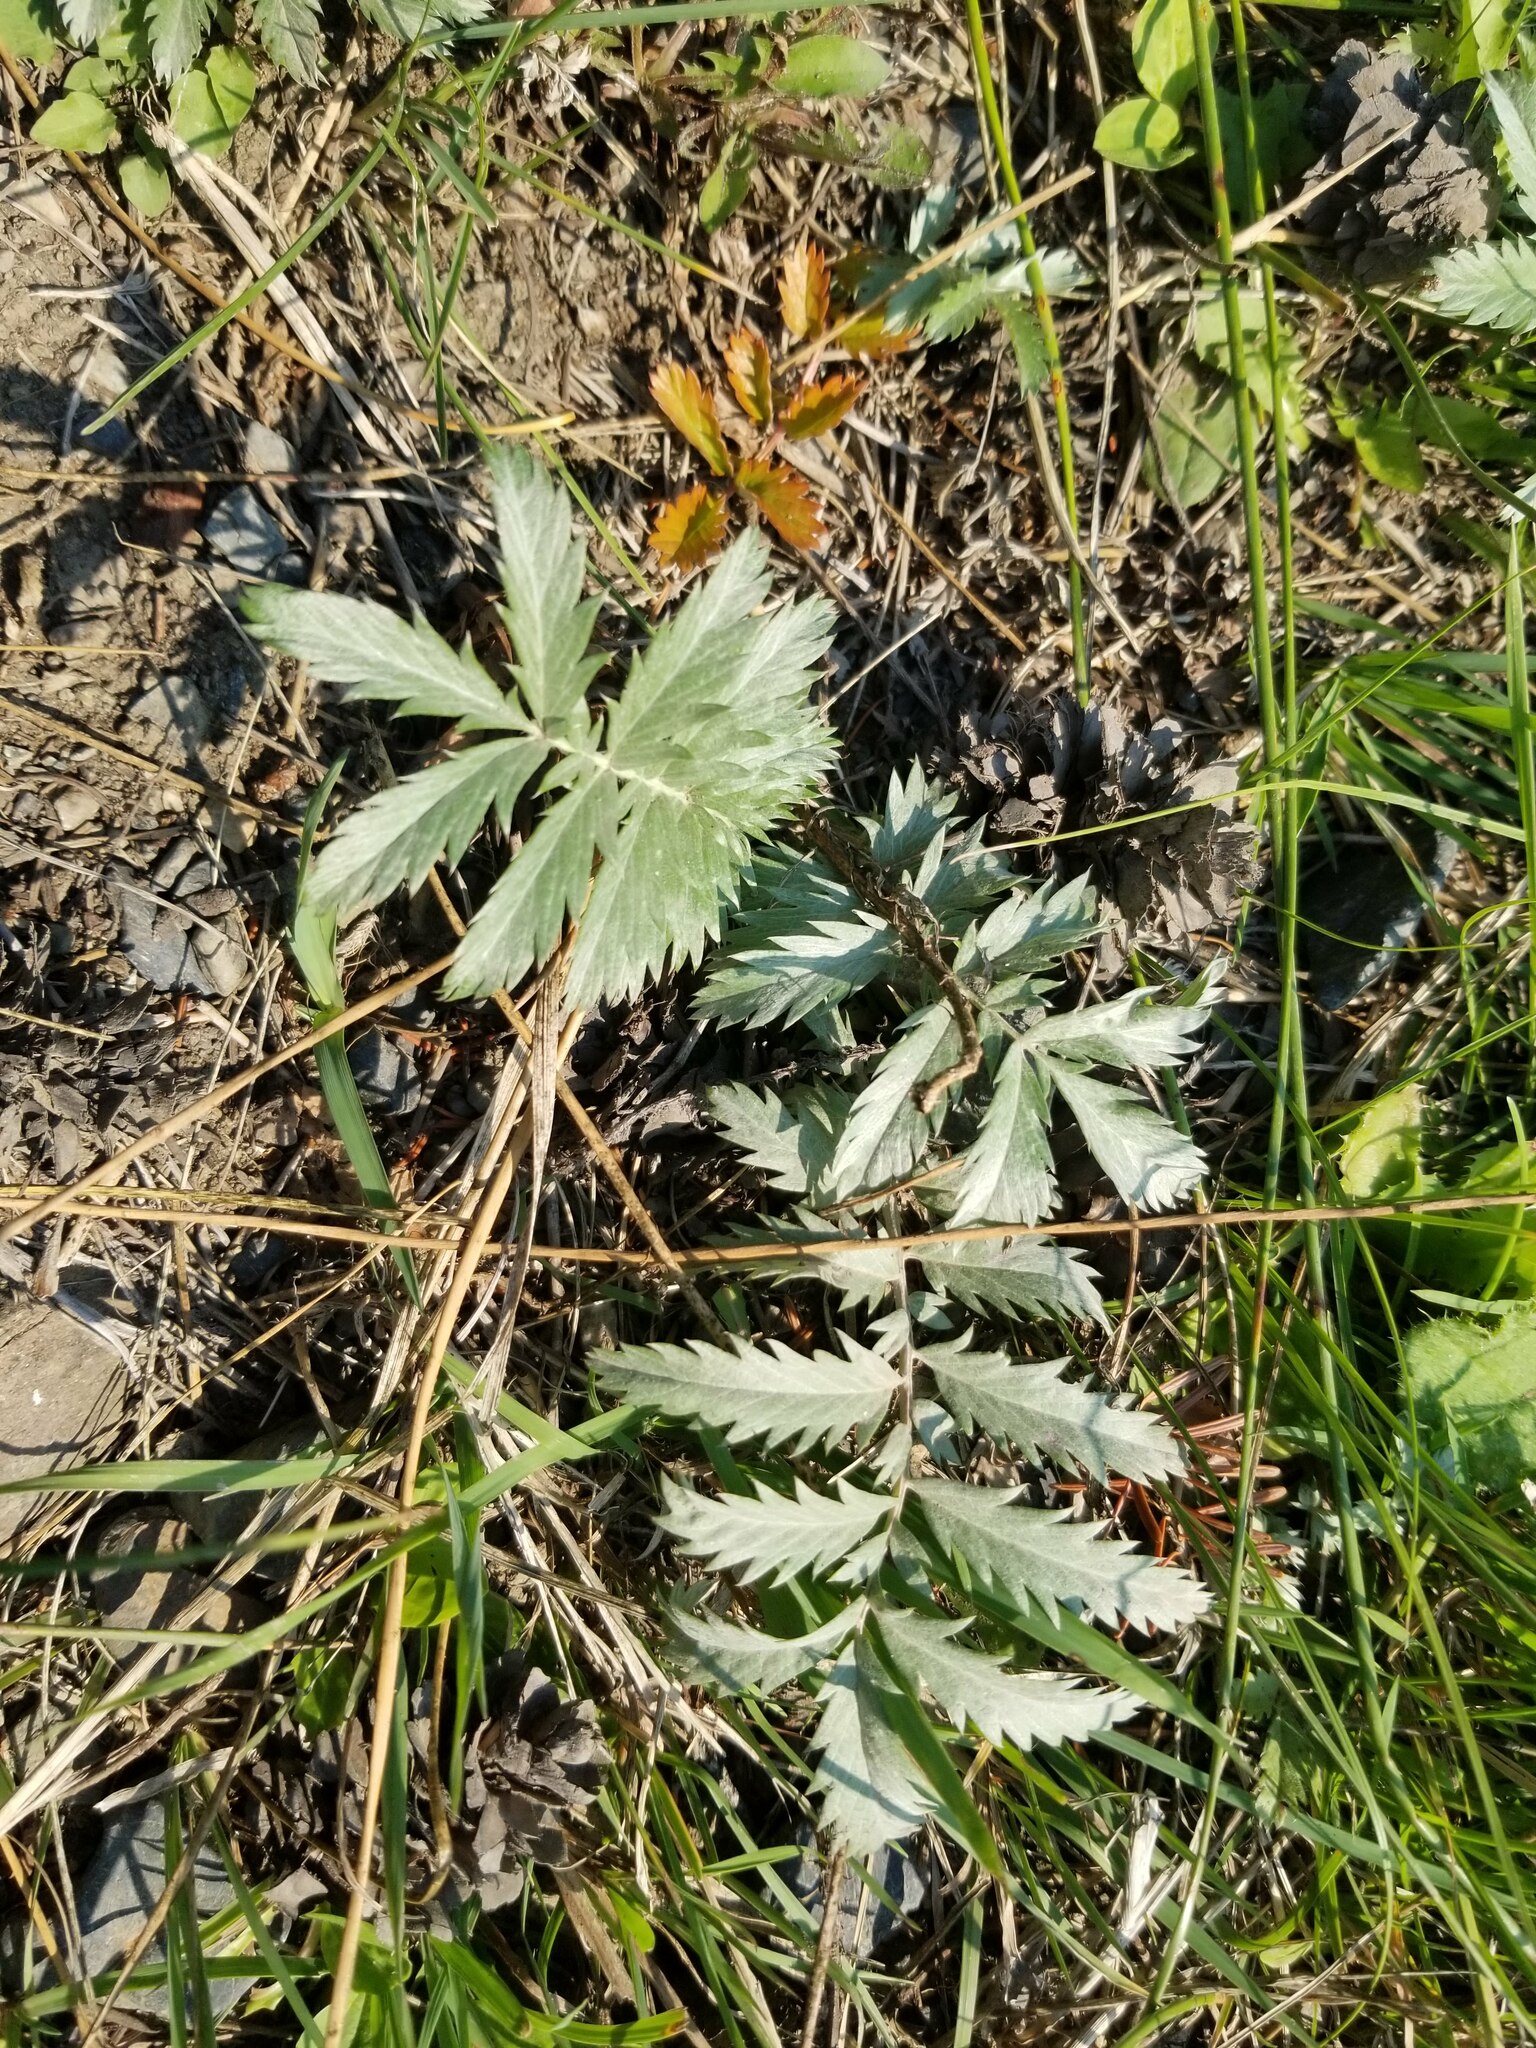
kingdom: Plantae
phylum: Tracheophyta
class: Magnoliopsida
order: Rosales
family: Rosaceae
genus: Argentina
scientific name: Argentina anserina
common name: Common silverweed
